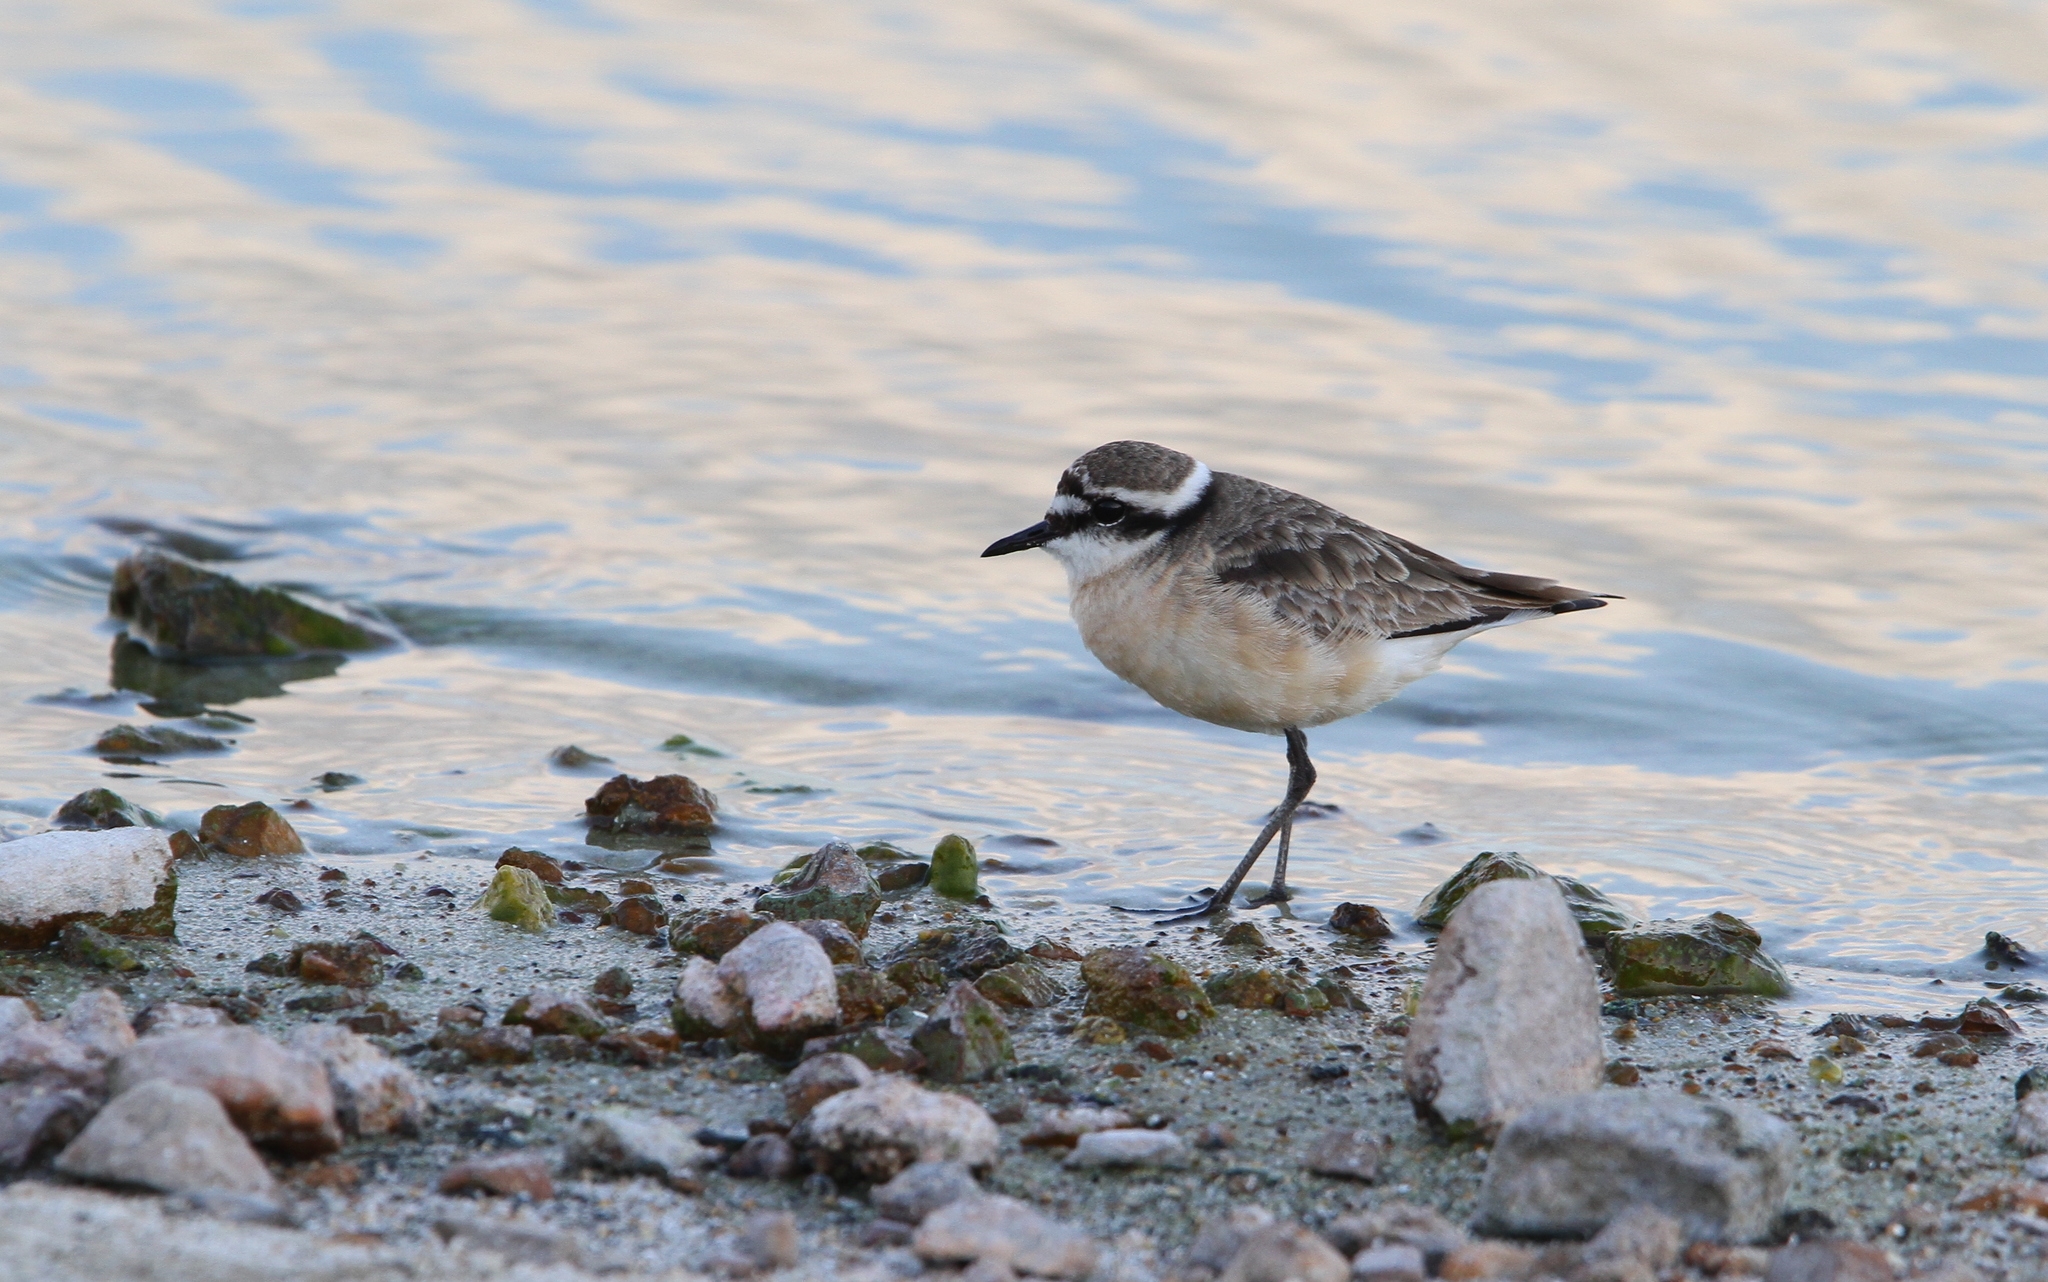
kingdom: Animalia
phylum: Chordata
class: Aves
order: Charadriiformes
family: Charadriidae
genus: Anarhynchus
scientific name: Anarhynchus
